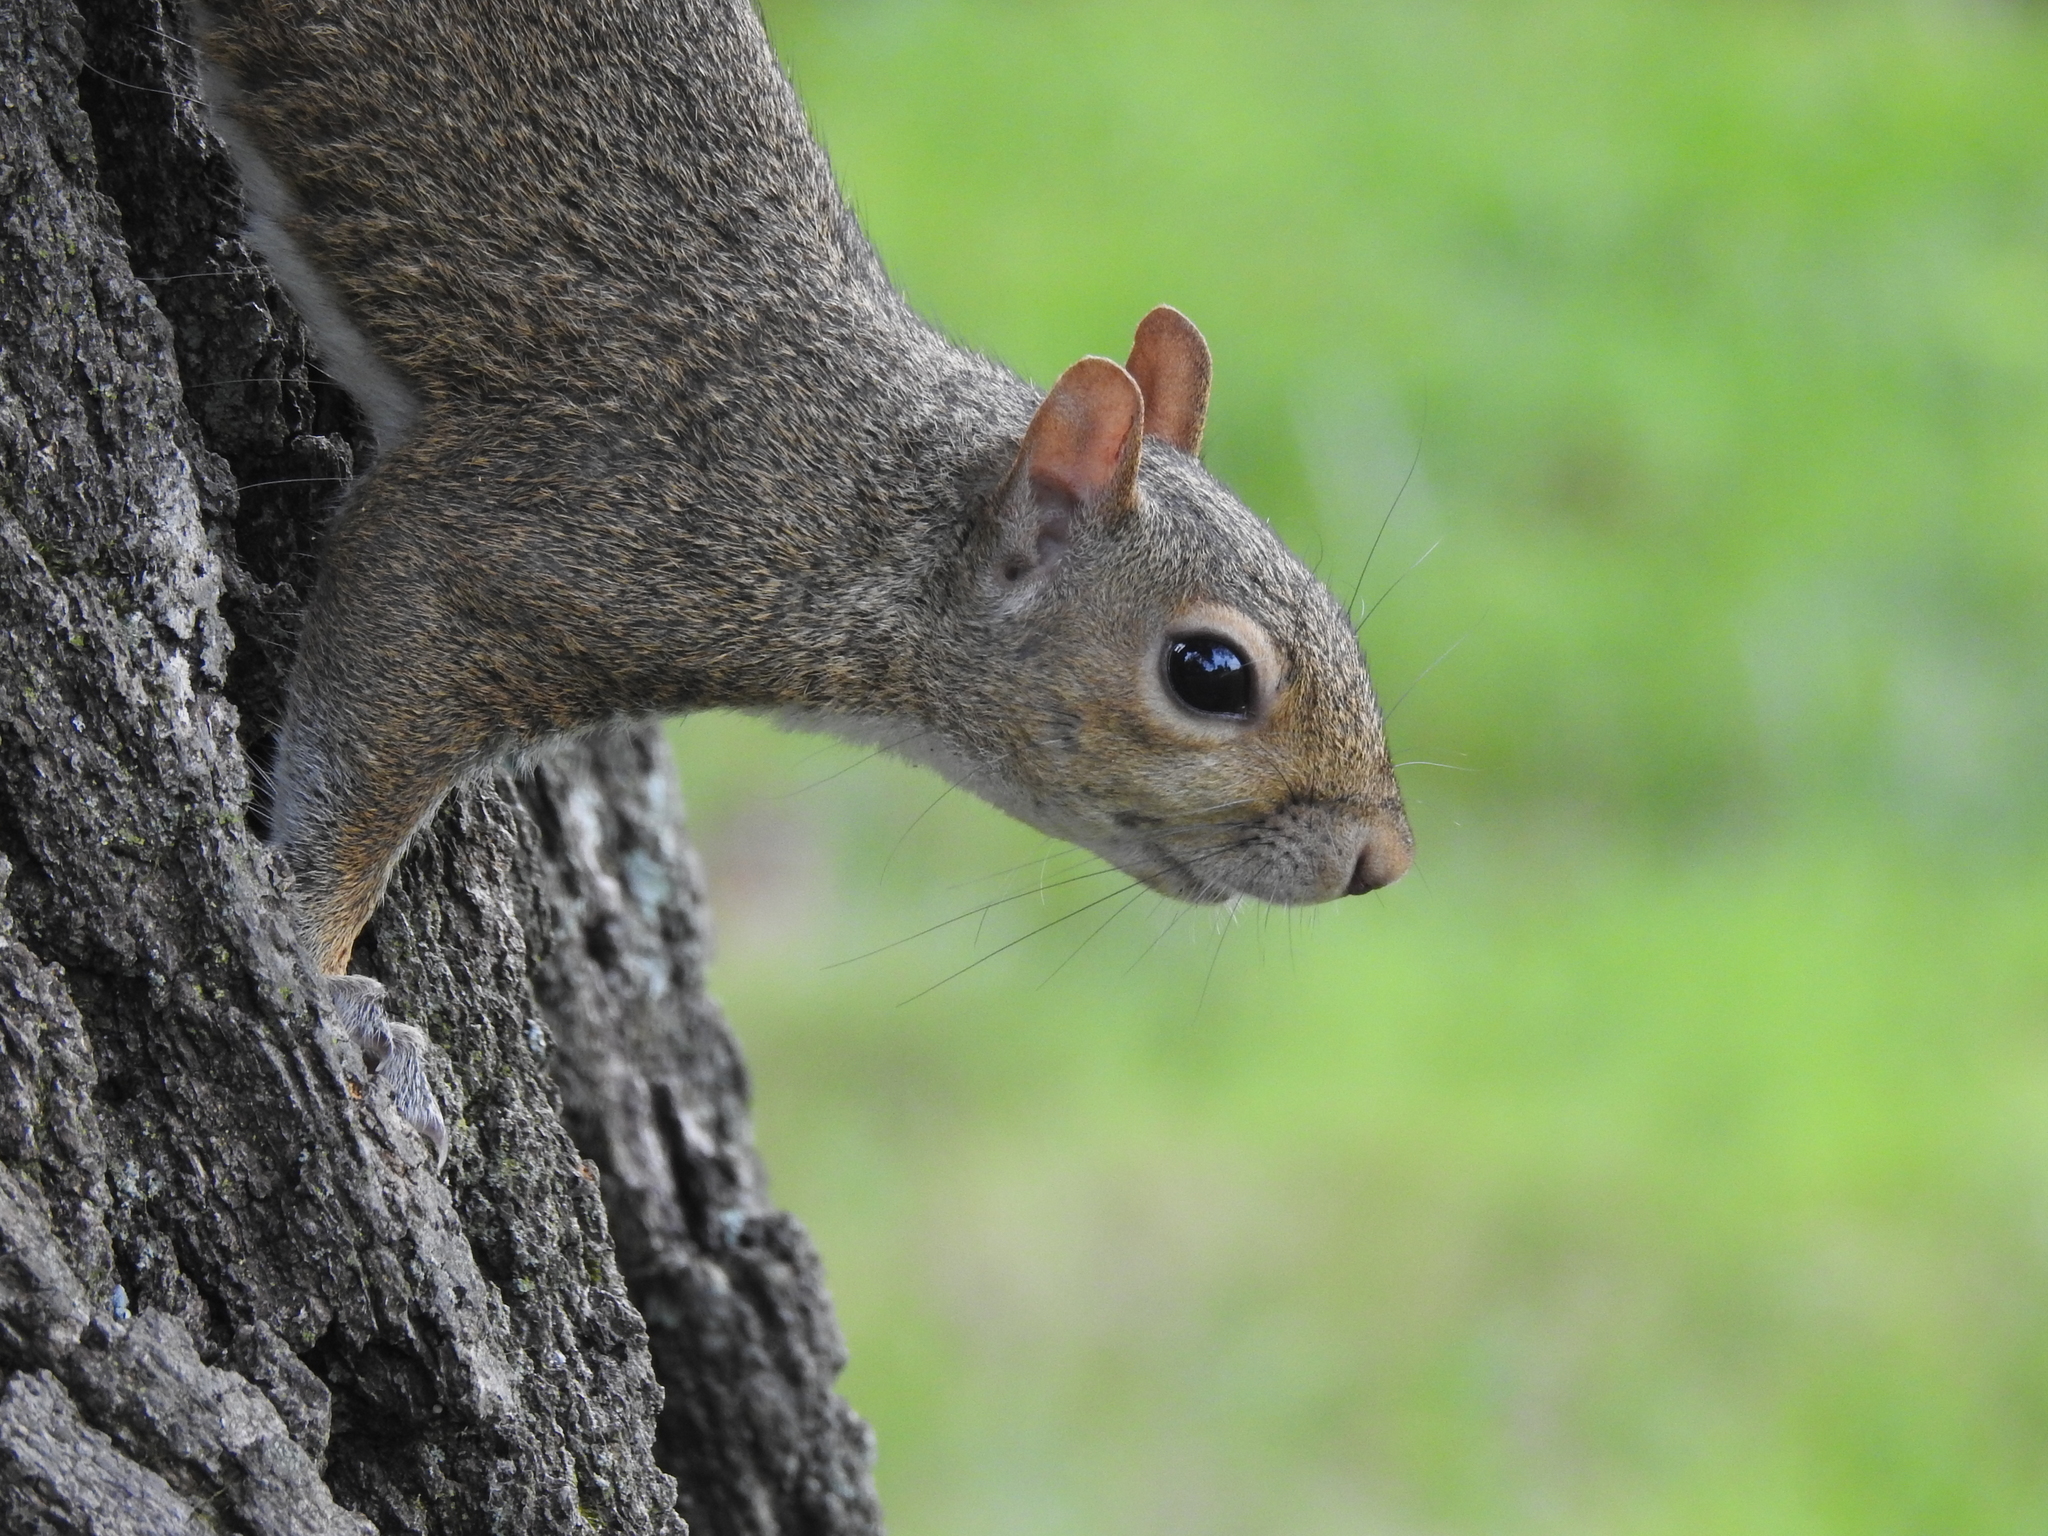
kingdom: Animalia
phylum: Chordata
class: Mammalia
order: Rodentia
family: Sciuridae
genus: Sciurus
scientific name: Sciurus carolinensis
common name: Eastern gray squirrel
